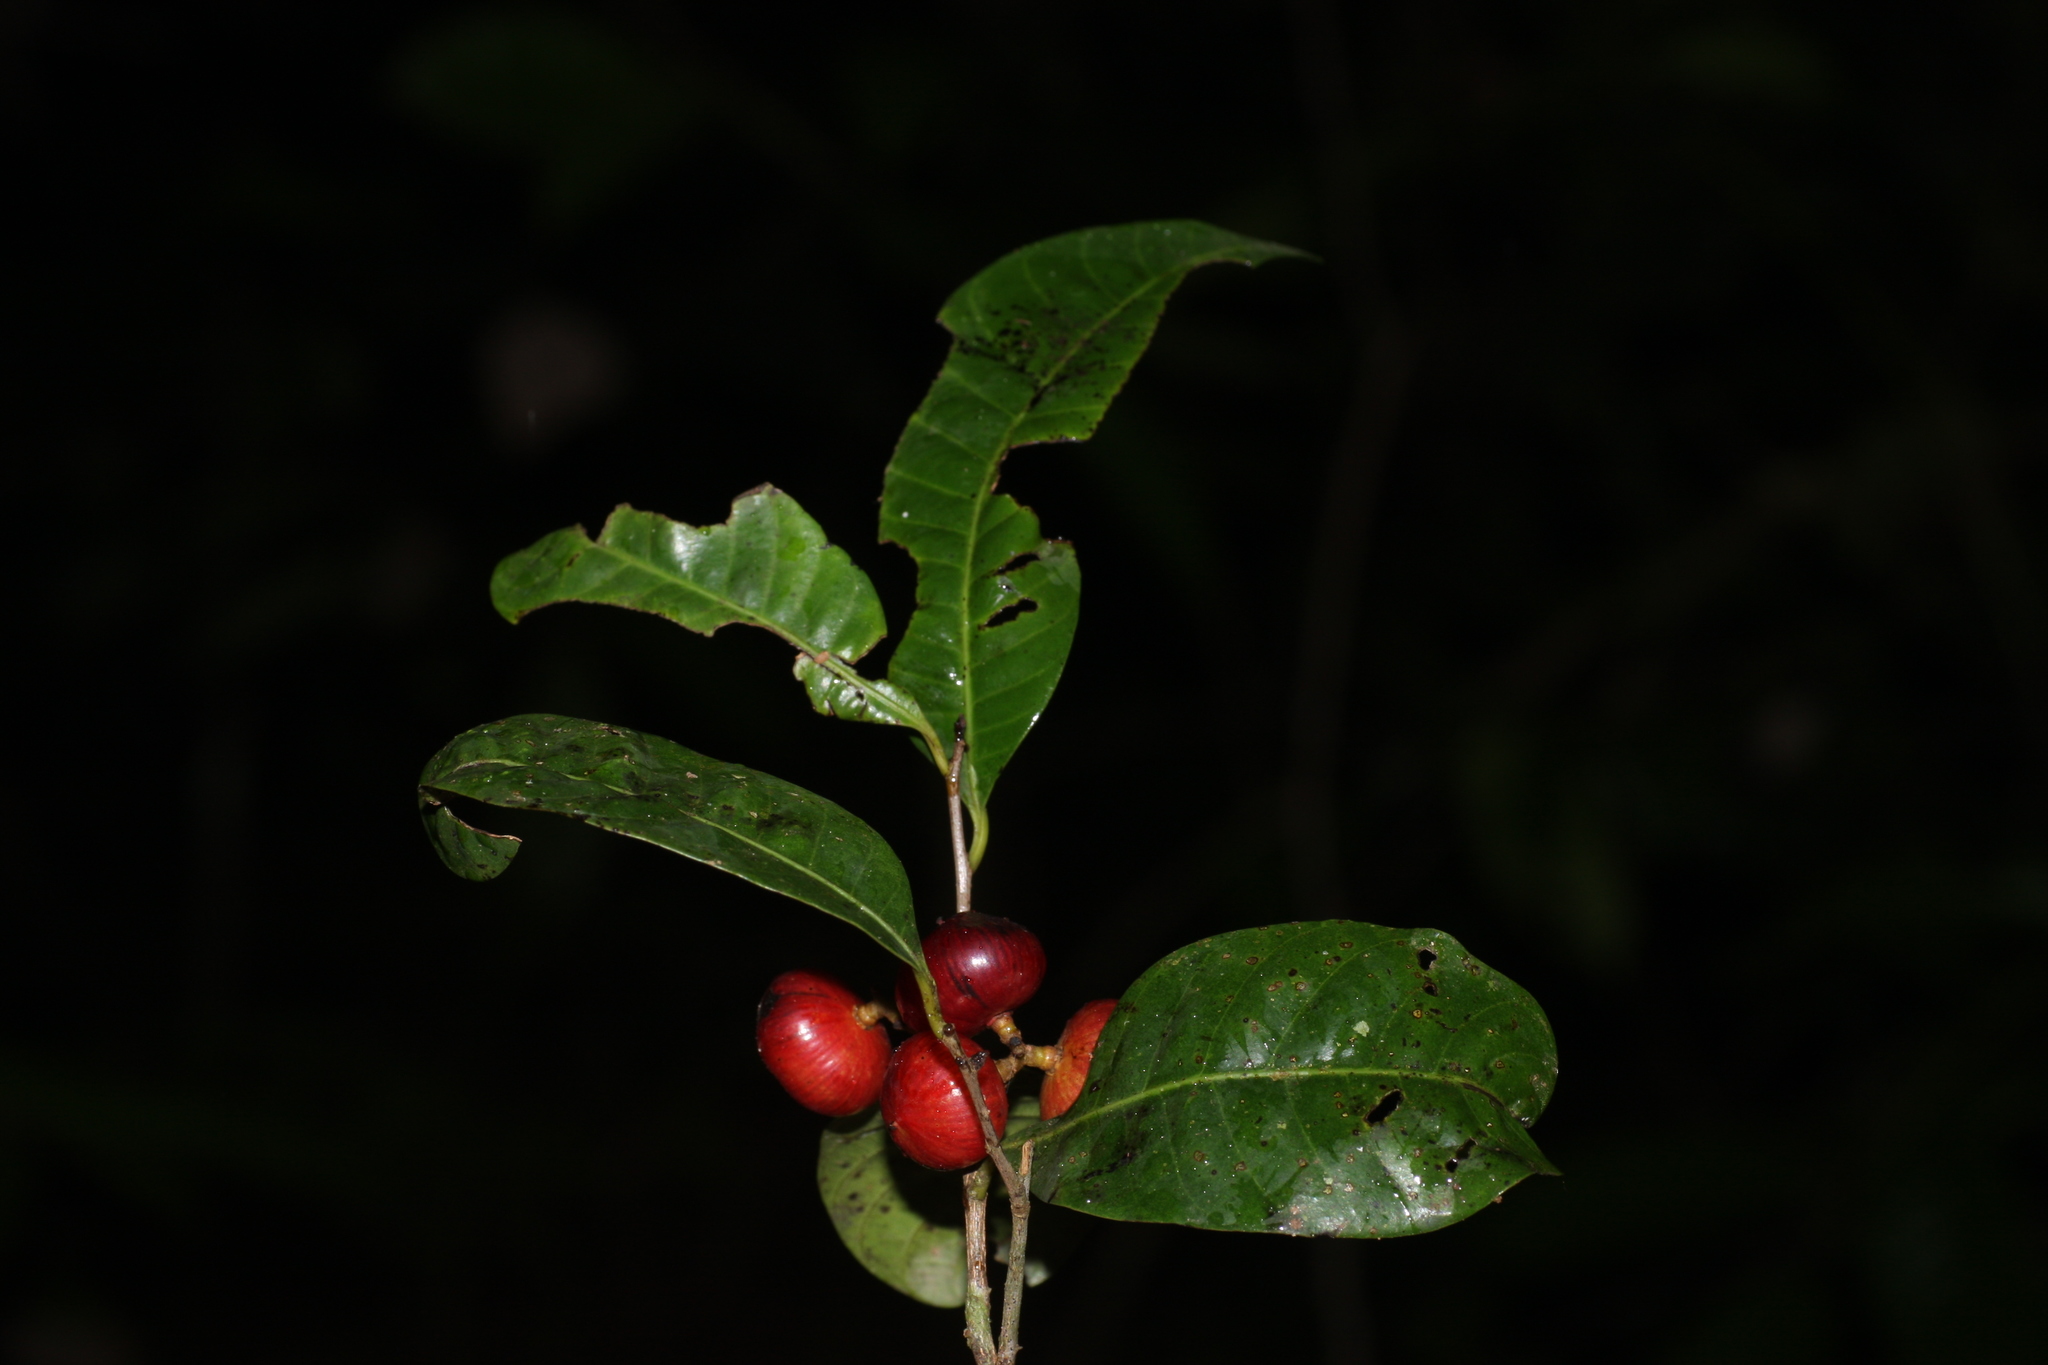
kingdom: Plantae
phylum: Tracheophyta
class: Magnoliopsida
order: Sapindales
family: Anacardiaceae
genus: Nothopegia
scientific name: Nothopegia beddomei
